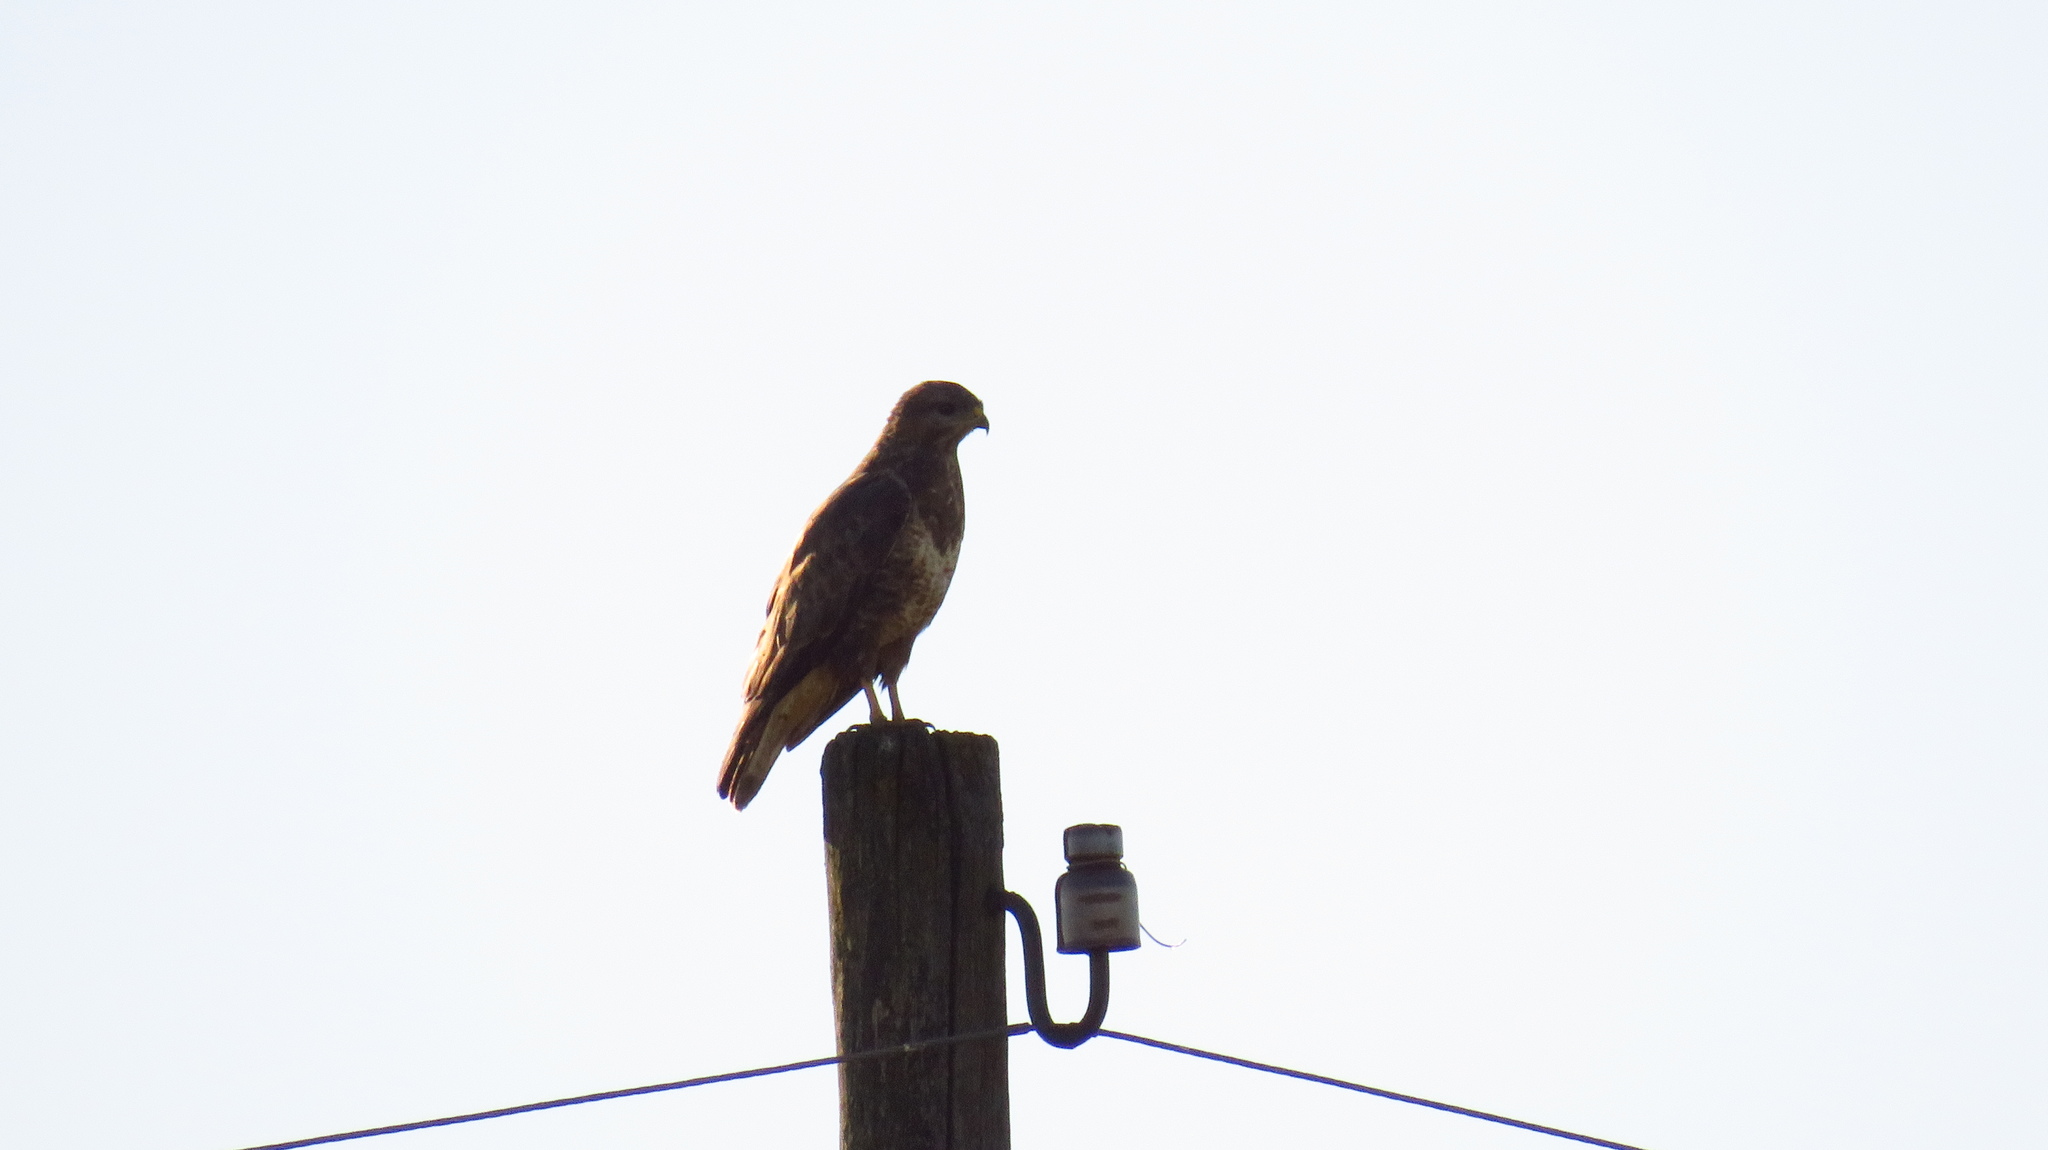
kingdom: Animalia
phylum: Chordata
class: Aves
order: Accipitriformes
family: Accipitridae
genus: Buteo
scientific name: Buteo buteo
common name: Common buzzard
